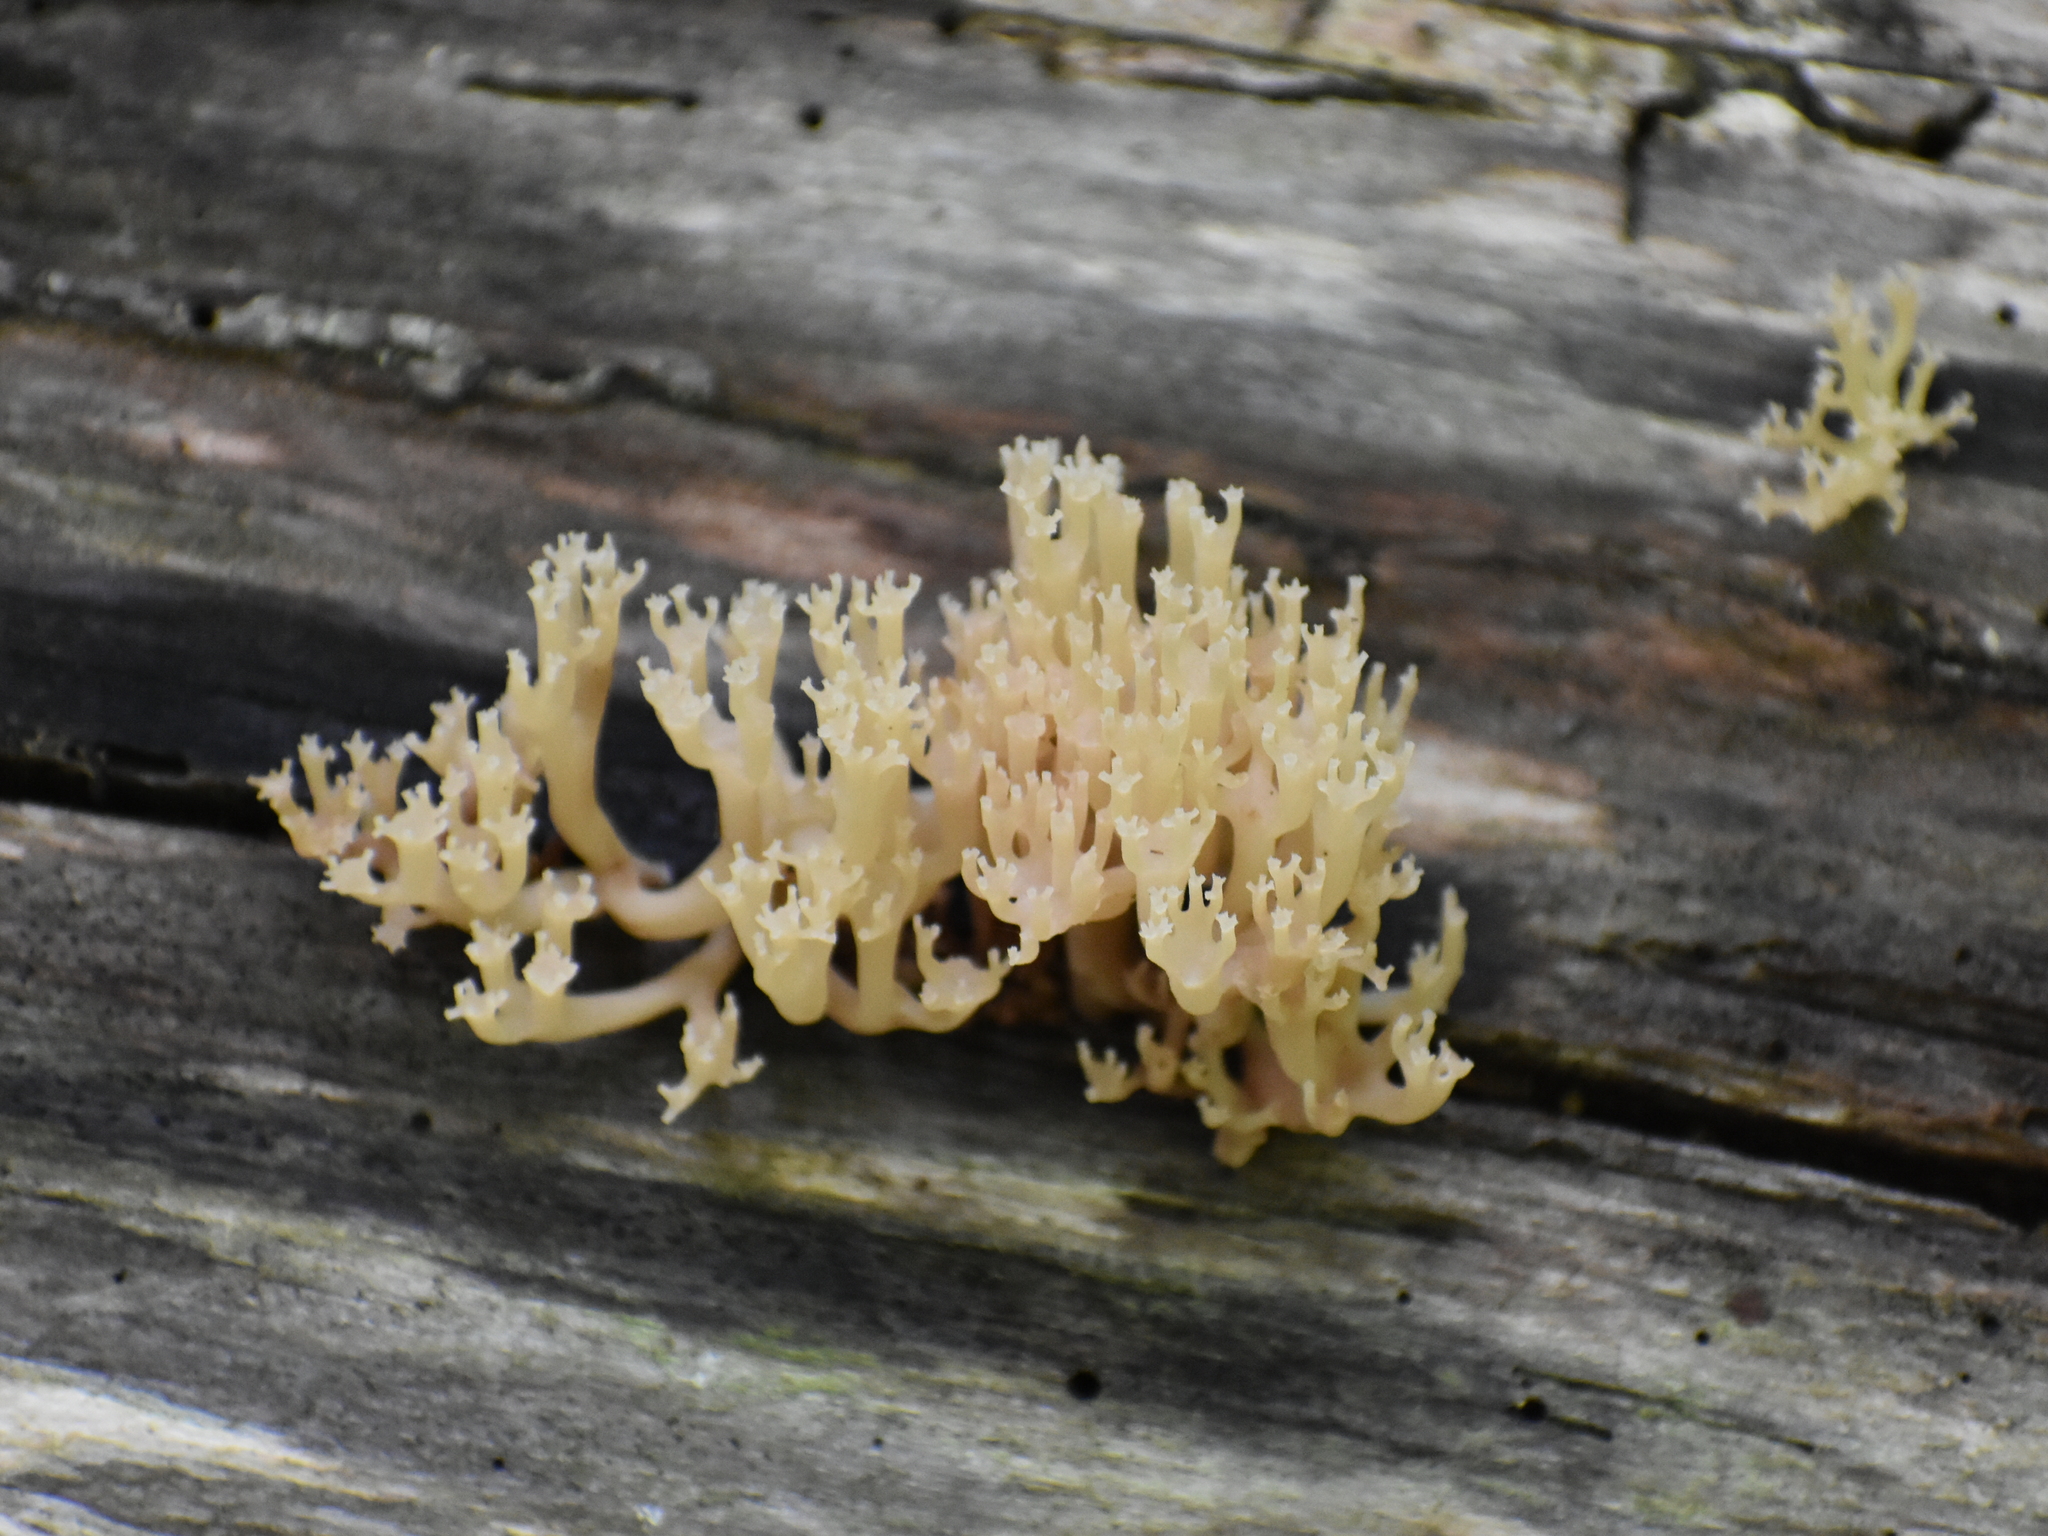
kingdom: Fungi
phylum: Basidiomycota
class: Agaricomycetes
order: Russulales
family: Auriscalpiaceae
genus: Artomyces
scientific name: Artomyces pyxidatus
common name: Crown-tipped coral fungus
